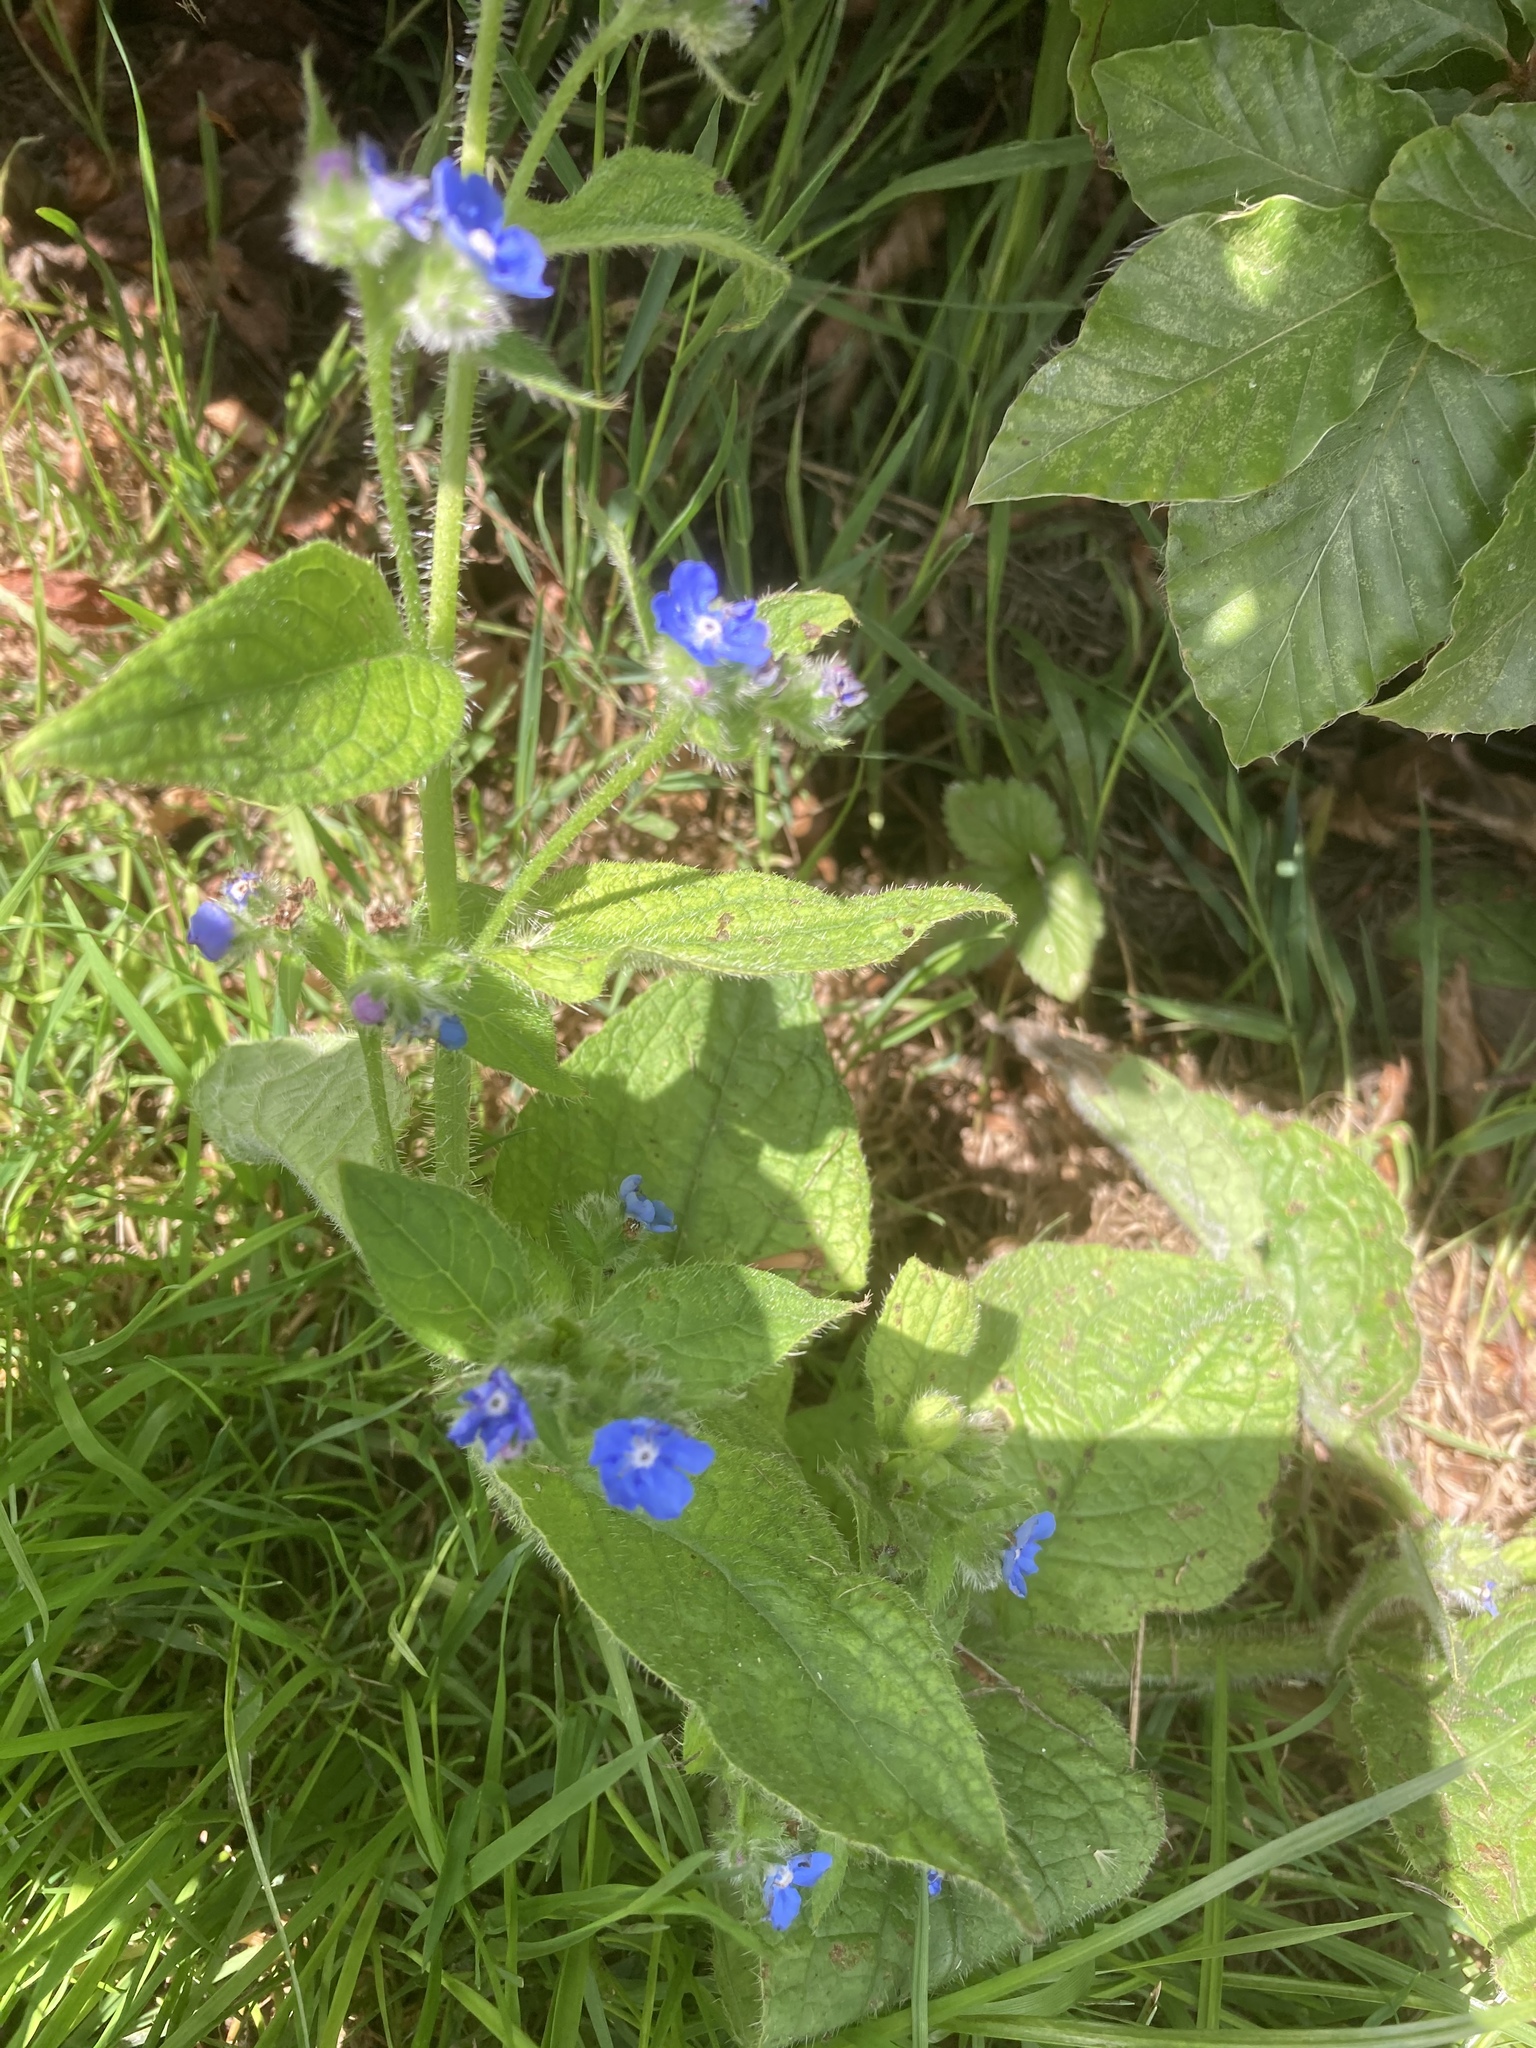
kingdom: Plantae
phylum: Tracheophyta
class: Magnoliopsida
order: Boraginales
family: Boraginaceae
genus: Pentaglottis
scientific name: Pentaglottis sempervirens
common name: Green alkanet
